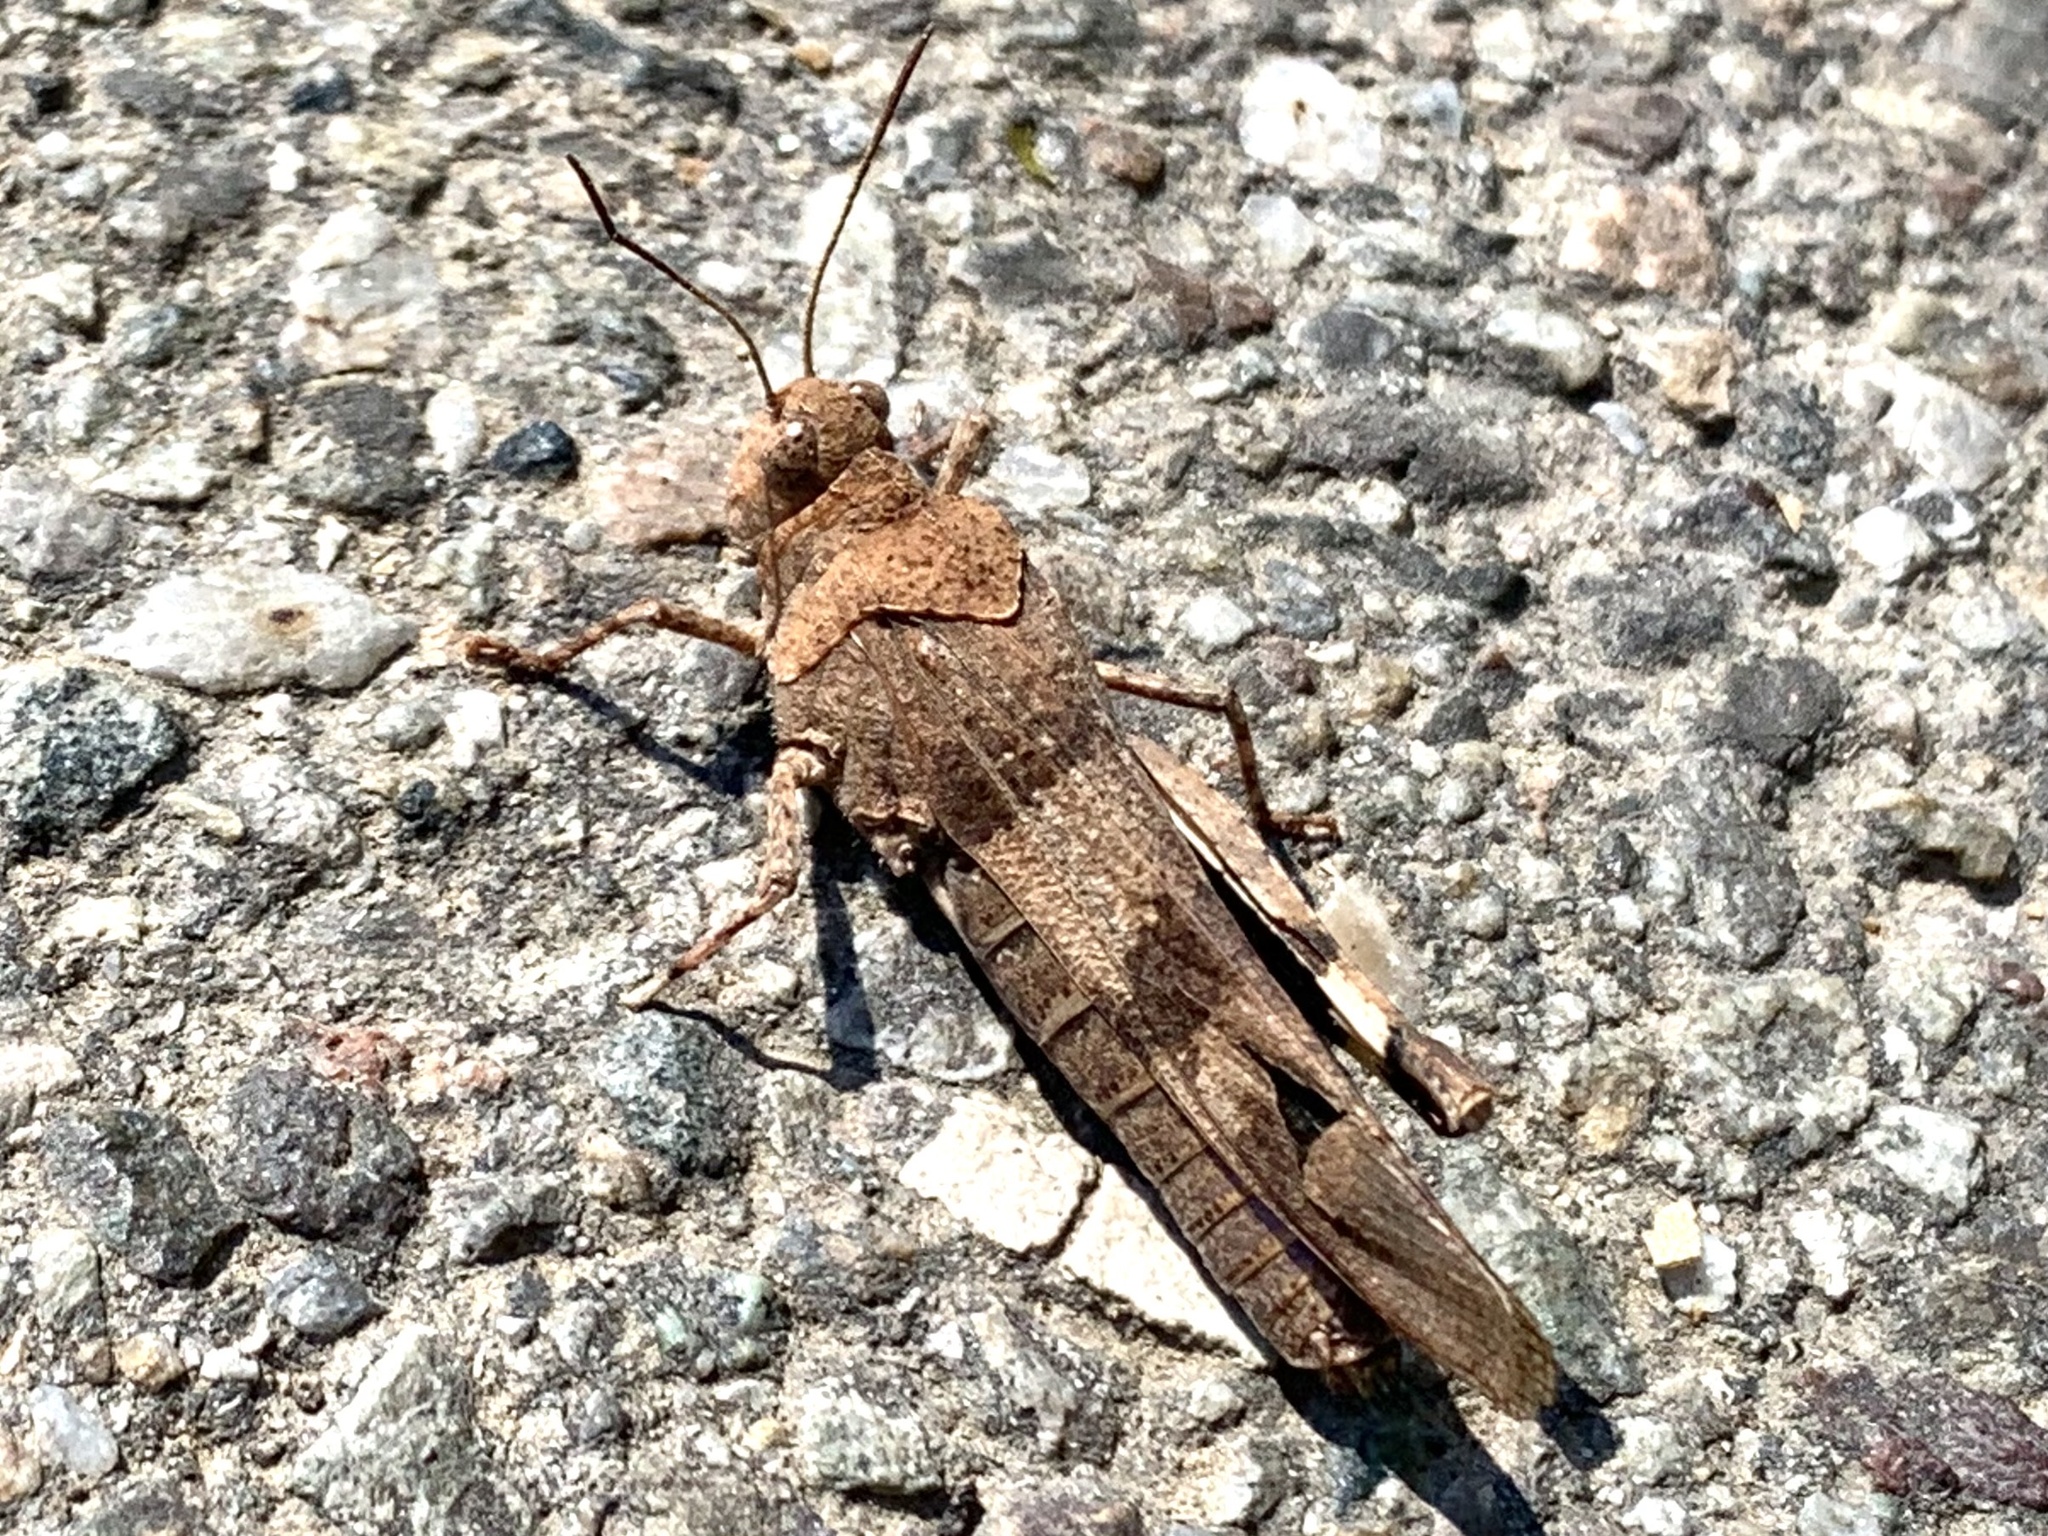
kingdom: Animalia
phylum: Arthropoda
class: Insecta
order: Orthoptera
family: Acrididae
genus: Oedipoda
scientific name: Oedipoda caerulescens
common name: Blue-winged grasshopper
